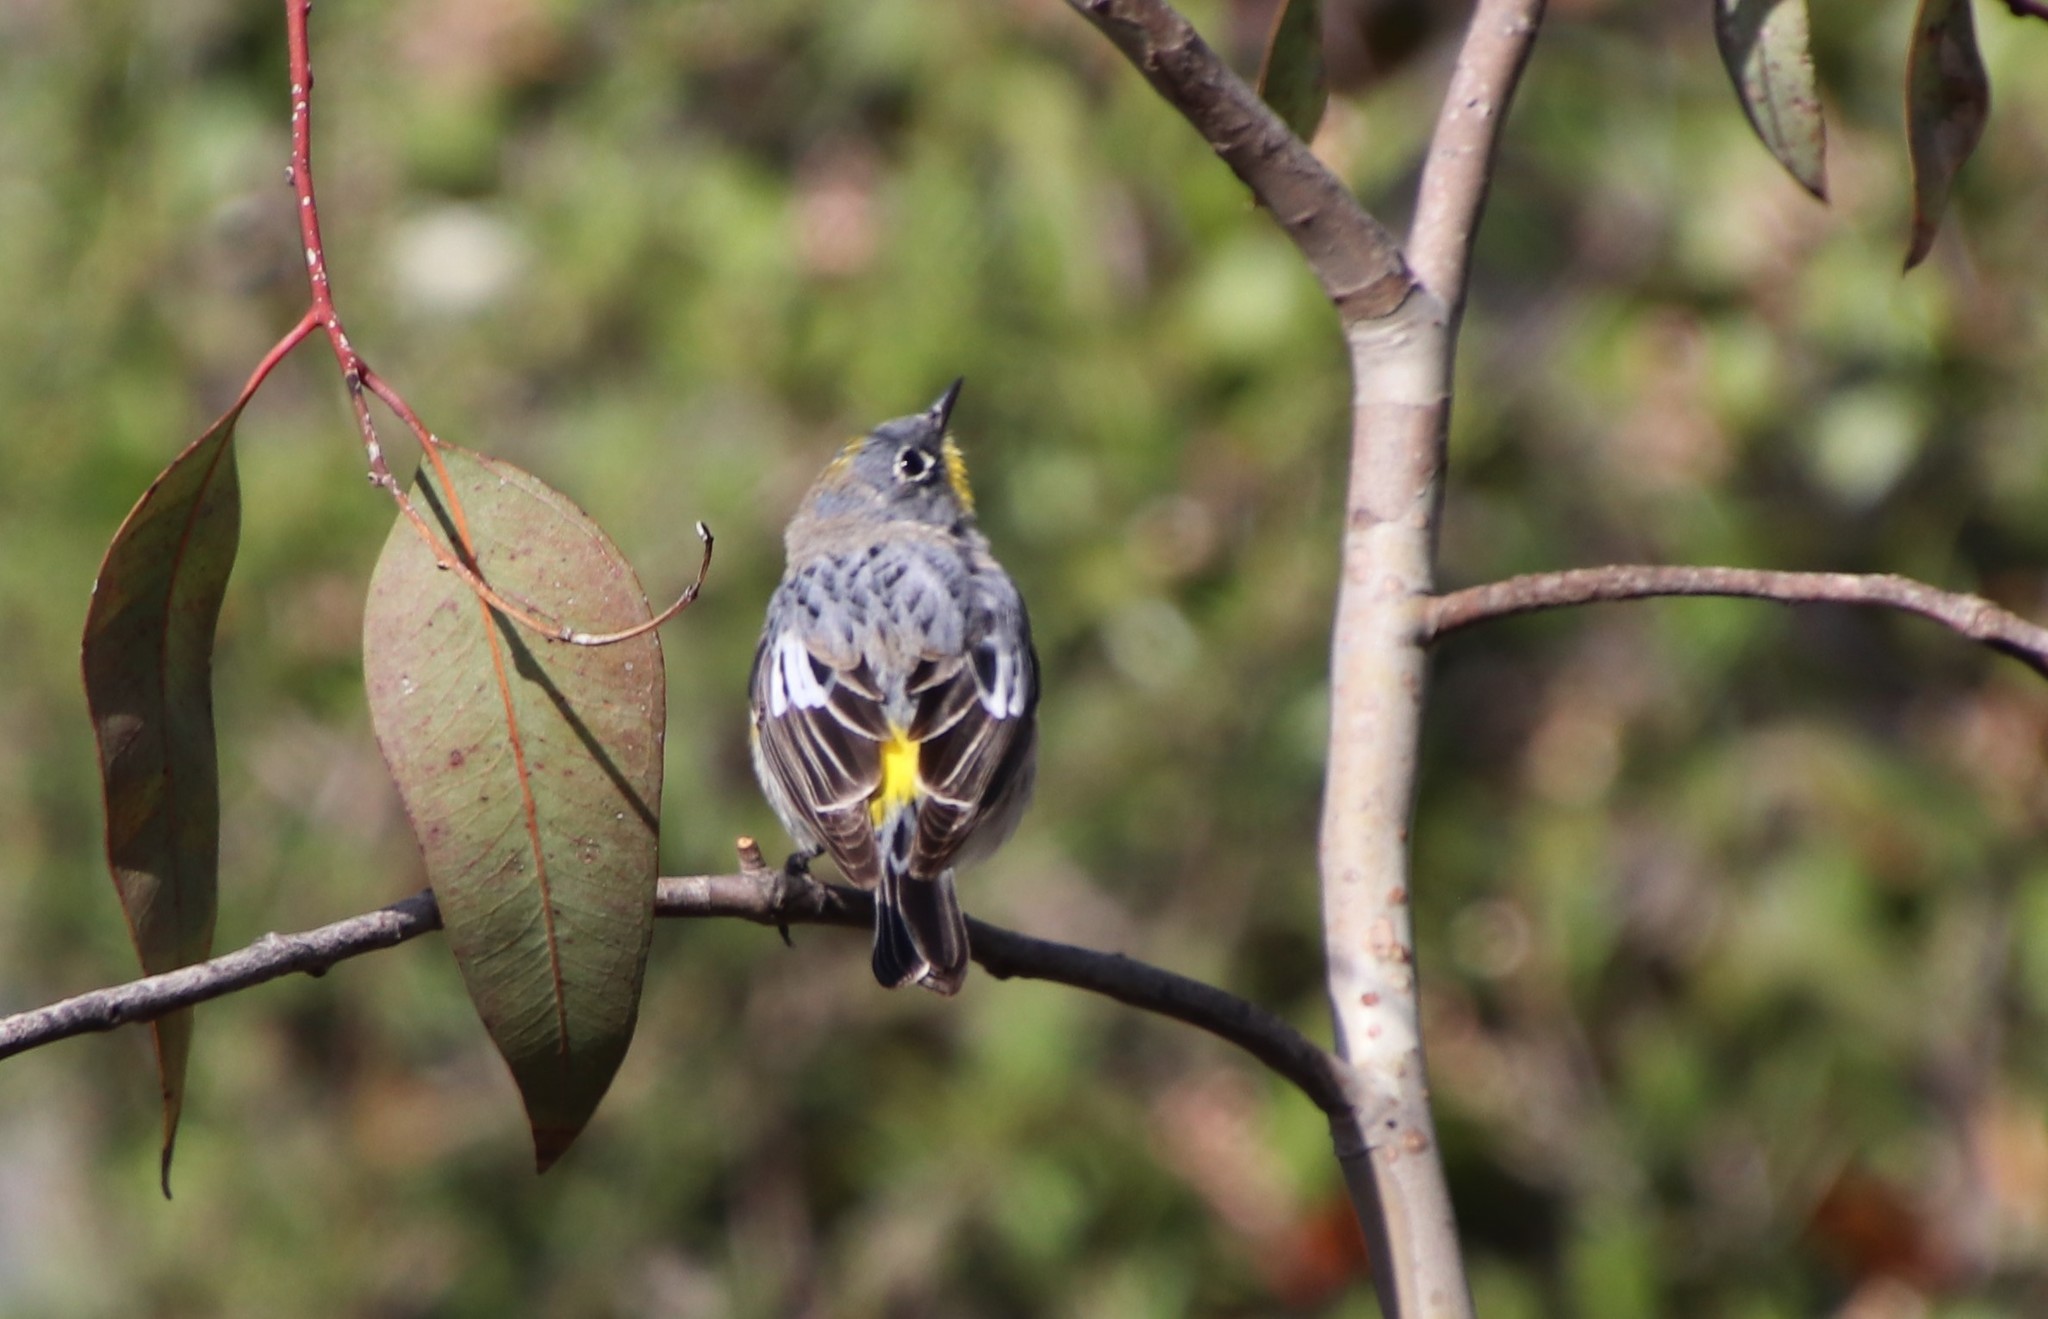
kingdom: Animalia
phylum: Chordata
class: Aves
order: Passeriformes
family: Parulidae
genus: Setophaga
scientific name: Setophaga auduboni
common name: Audubon's warbler
